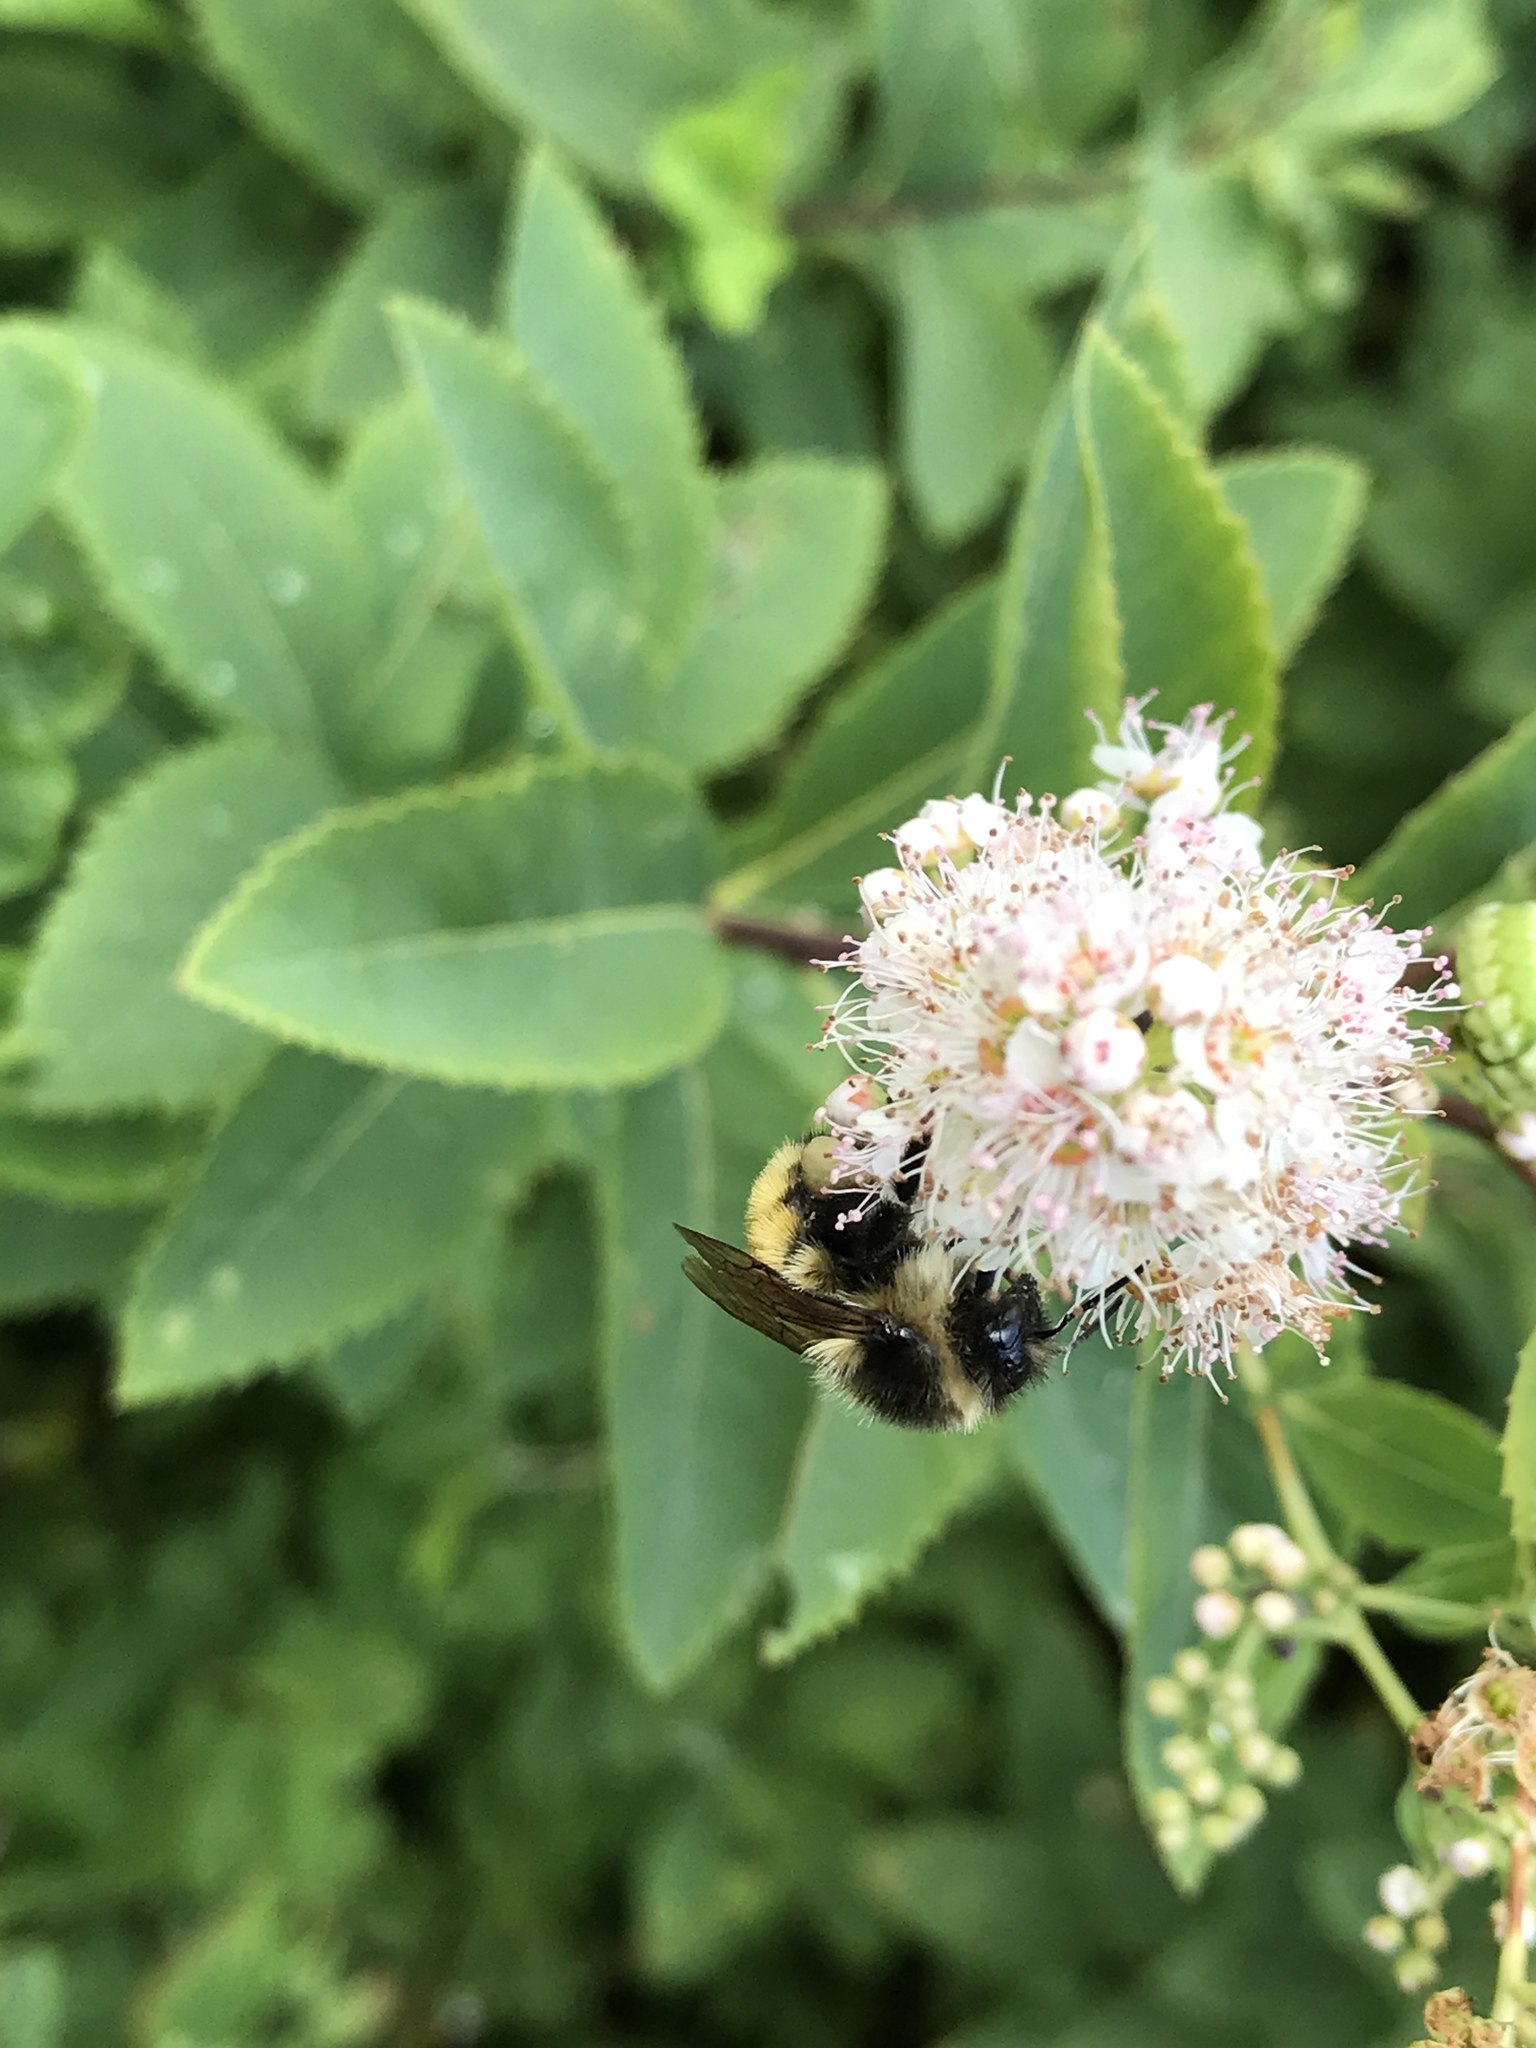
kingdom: Animalia
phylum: Arthropoda
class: Insecta
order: Hymenoptera
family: Apidae
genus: Bombus
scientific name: Bombus ternarius
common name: Tri-colored bumble bee
